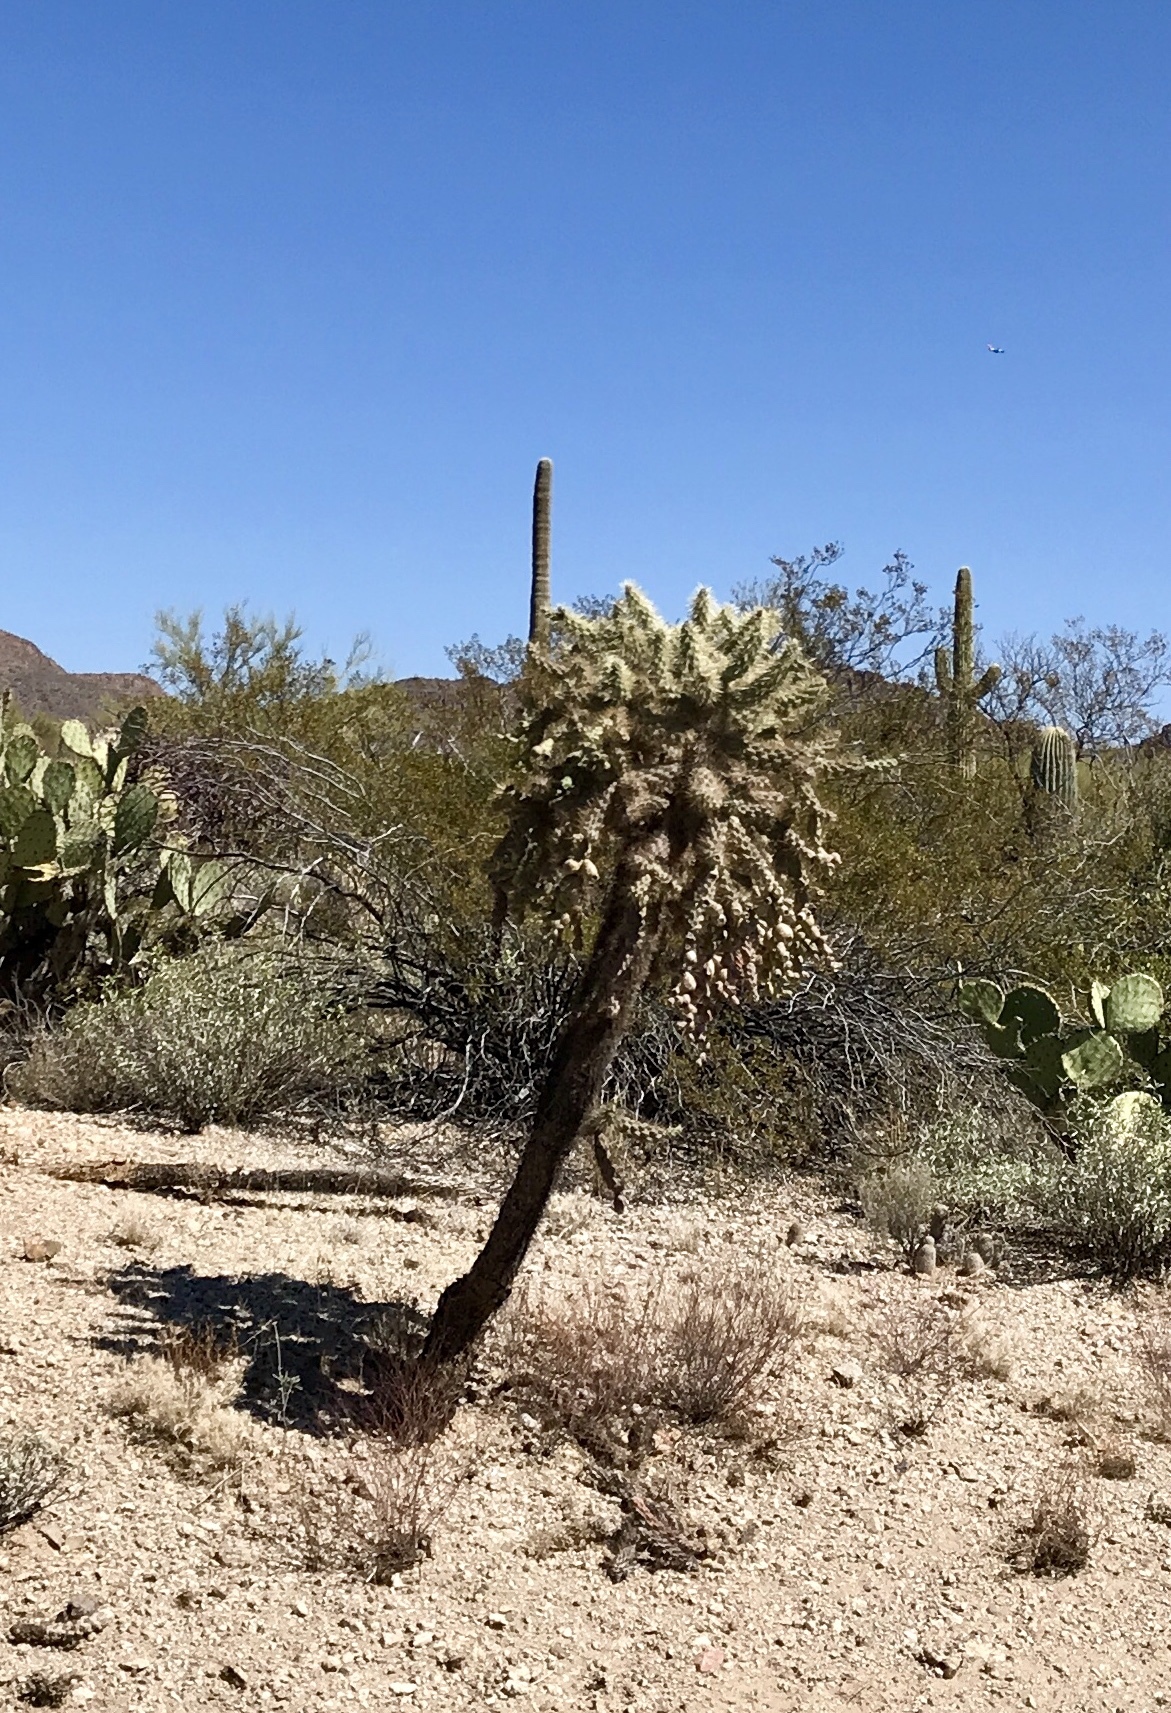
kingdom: Plantae
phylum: Tracheophyta
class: Magnoliopsida
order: Caryophyllales
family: Cactaceae
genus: Cylindropuntia
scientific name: Cylindropuntia fulgida
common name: Jumping cholla
